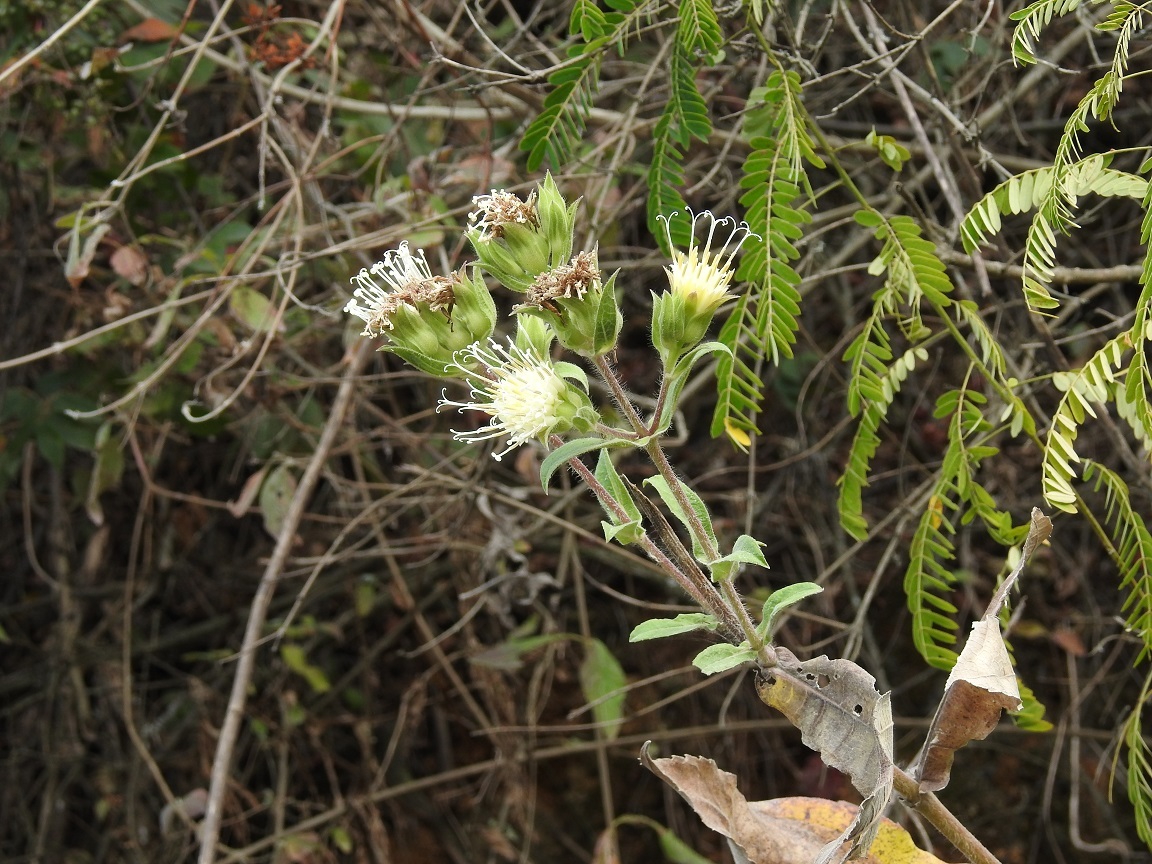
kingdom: Plantae
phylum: Tracheophyta
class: Magnoliopsida
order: Asterales
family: Asteraceae
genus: Lagascea
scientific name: Lagascea helianthifolia
